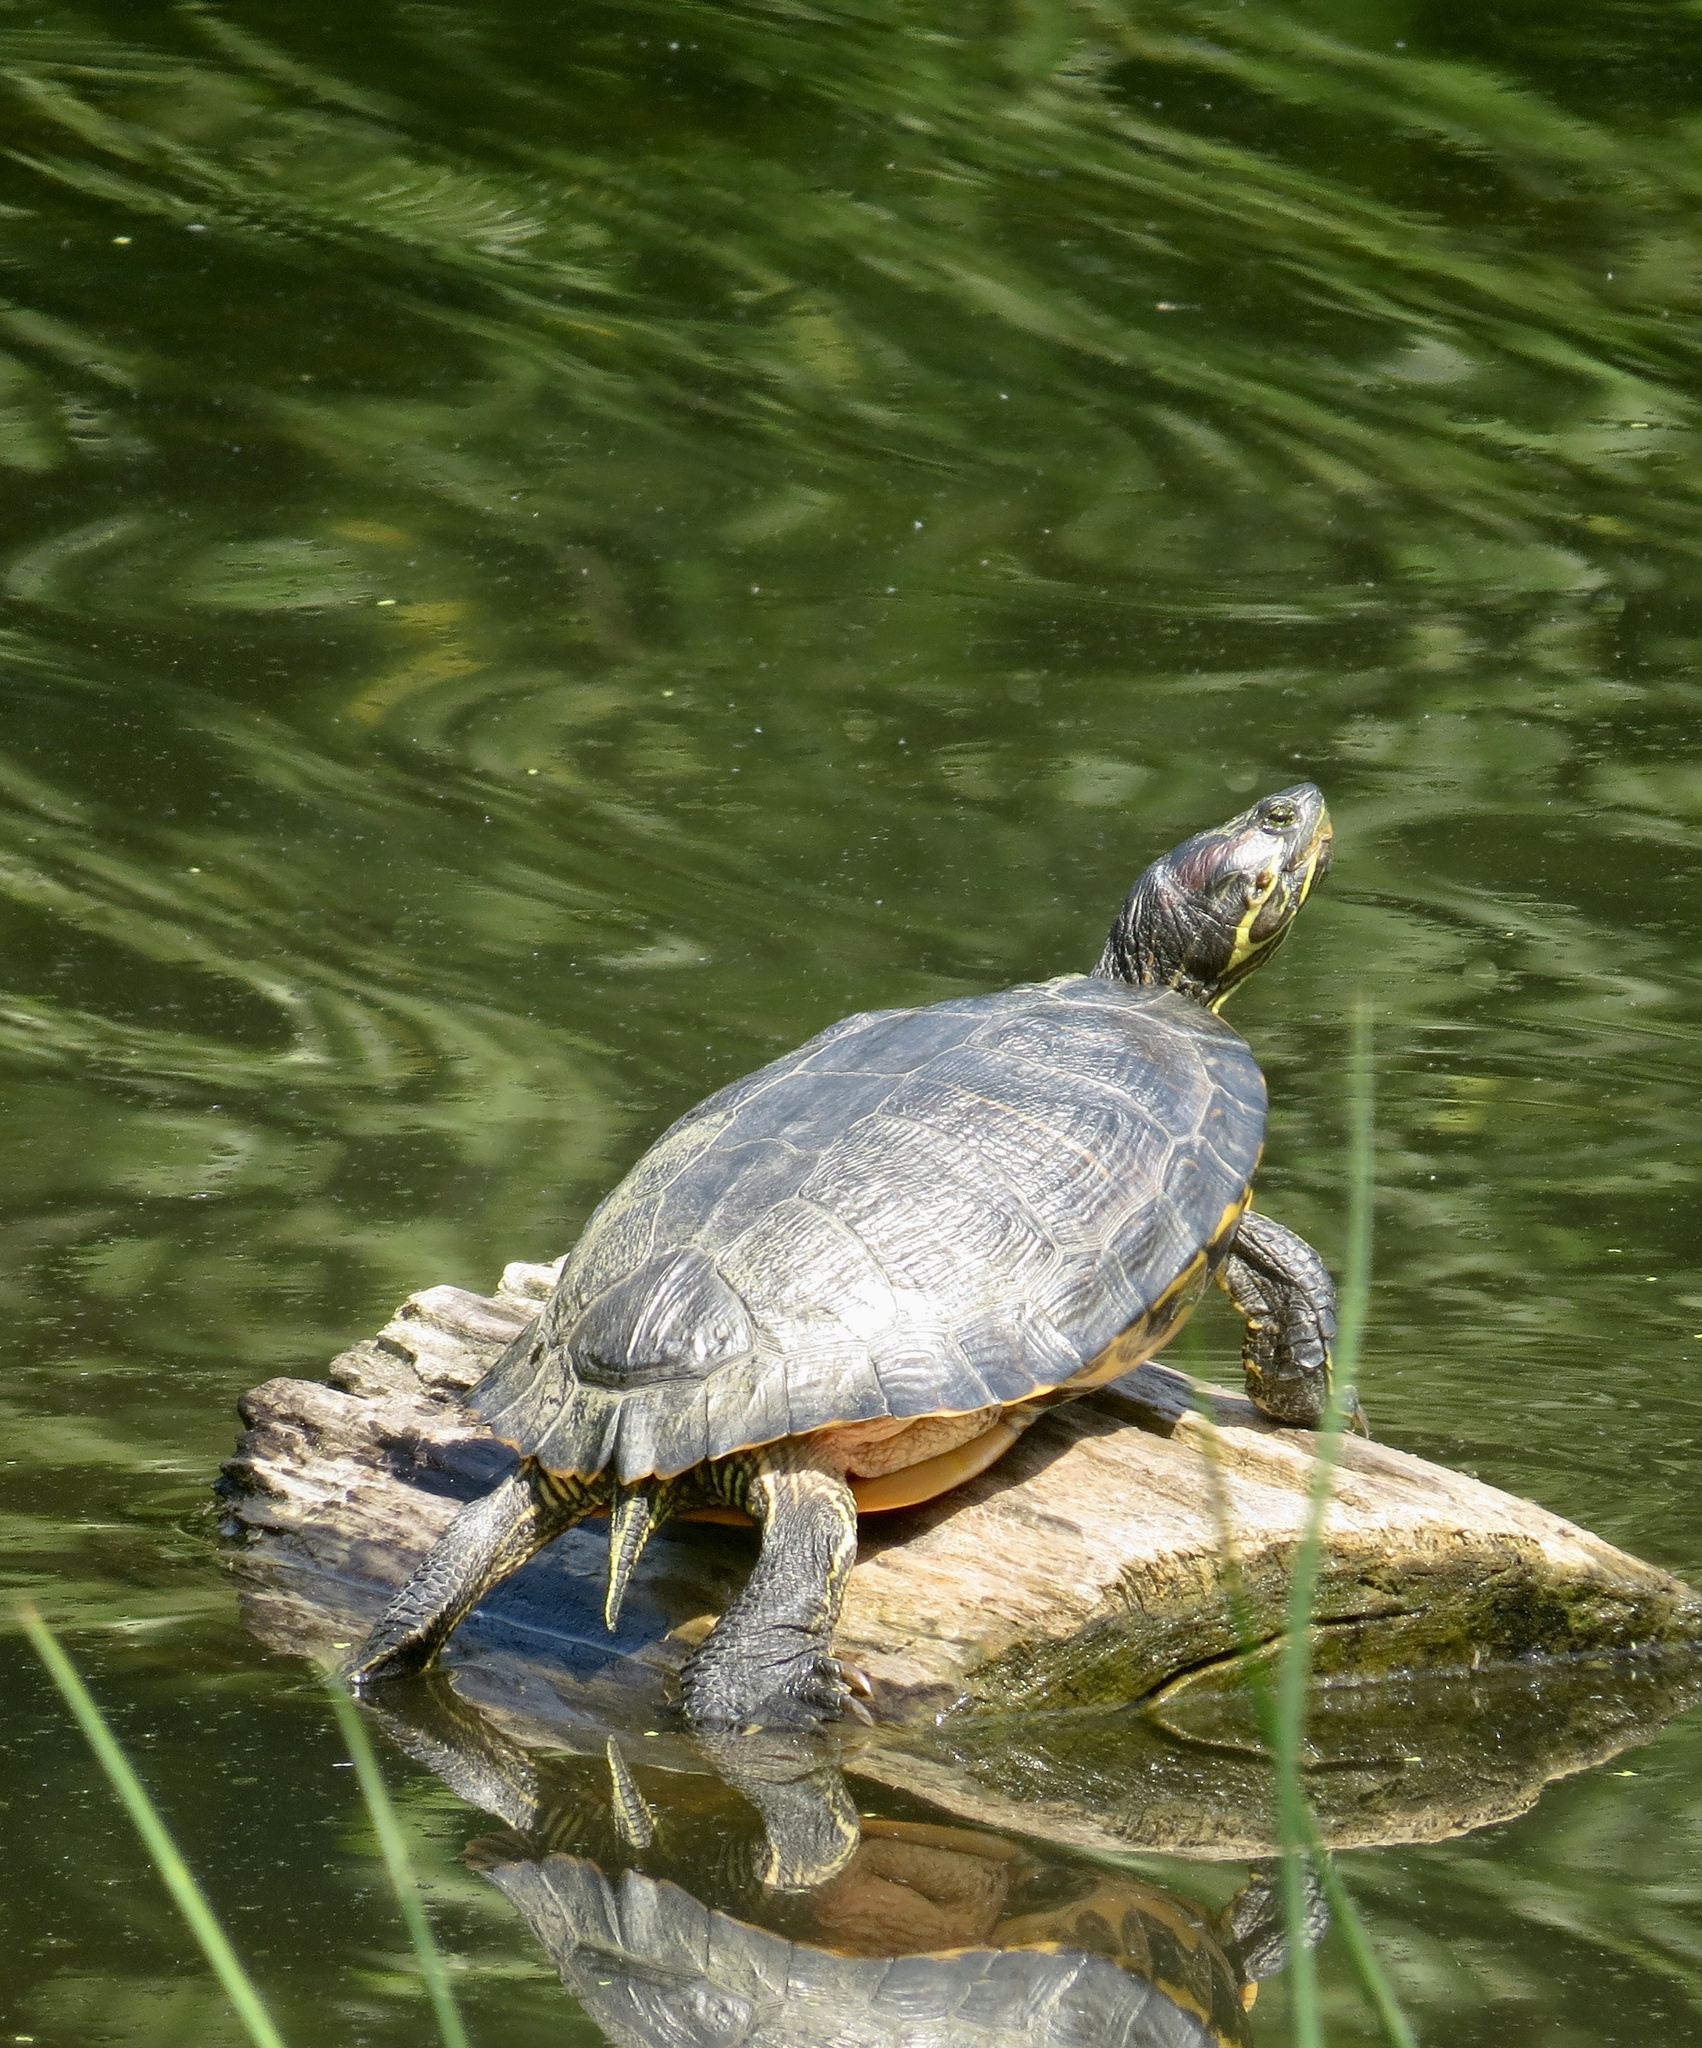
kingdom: Animalia
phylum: Chordata
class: Testudines
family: Emydidae
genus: Trachemys
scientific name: Trachemys scripta
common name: Slider
